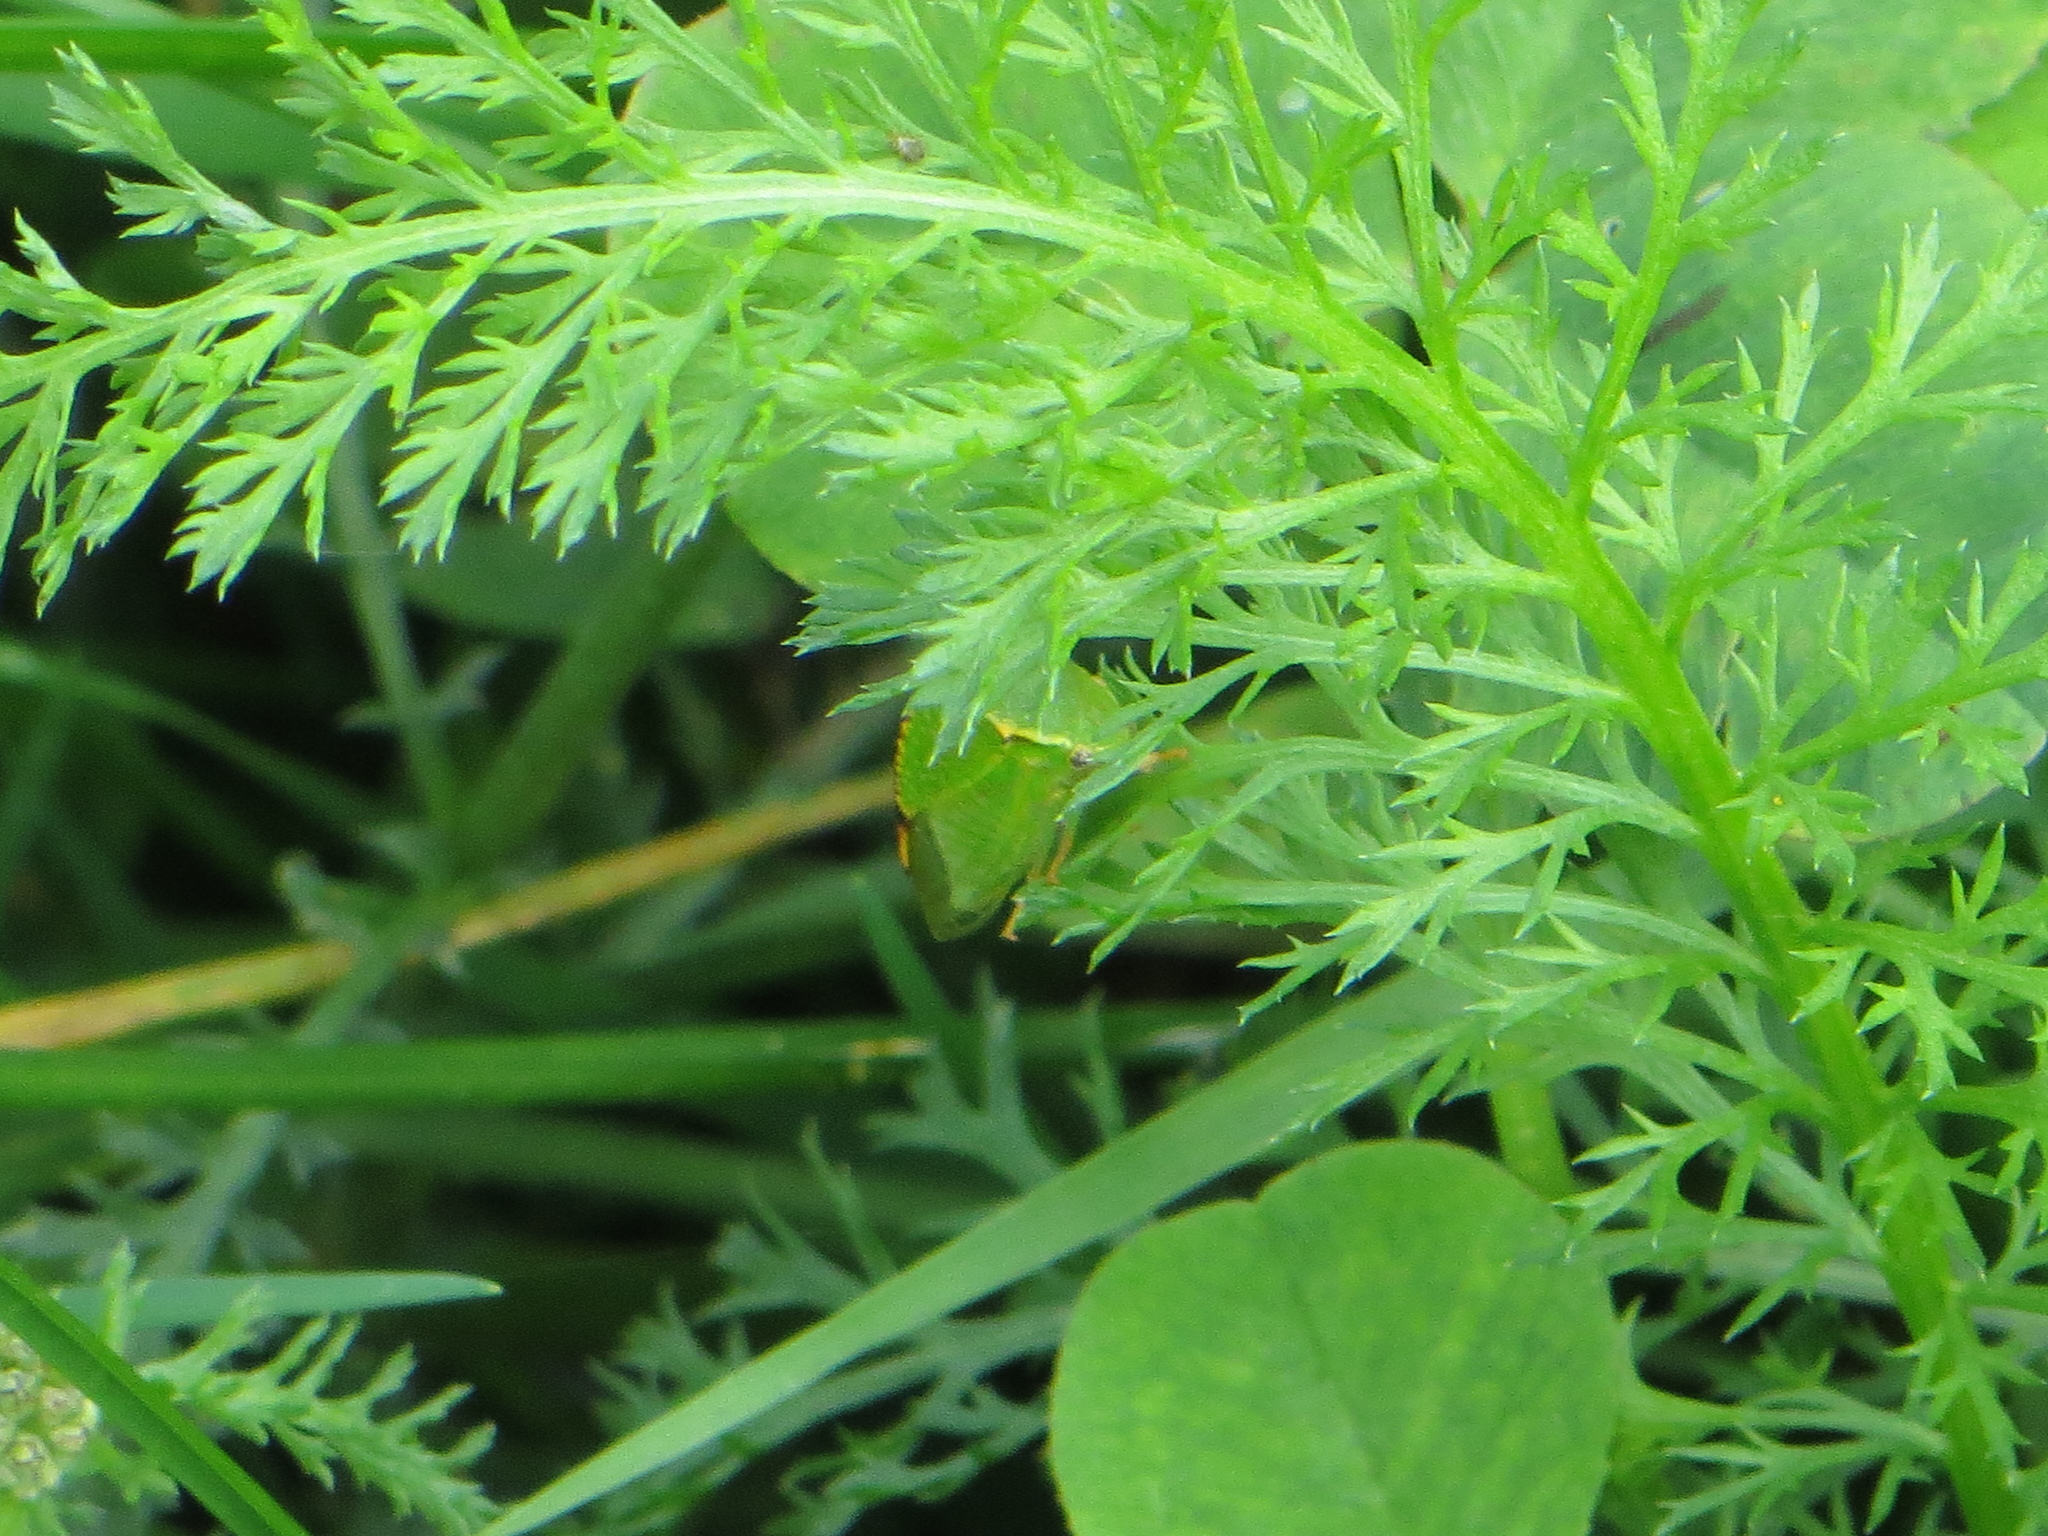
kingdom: Animalia
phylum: Arthropoda
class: Insecta
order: Hemiptera
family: Membracidae
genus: Stictocephala
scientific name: Stictocephala bisonia
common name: American buffalo treehopper
